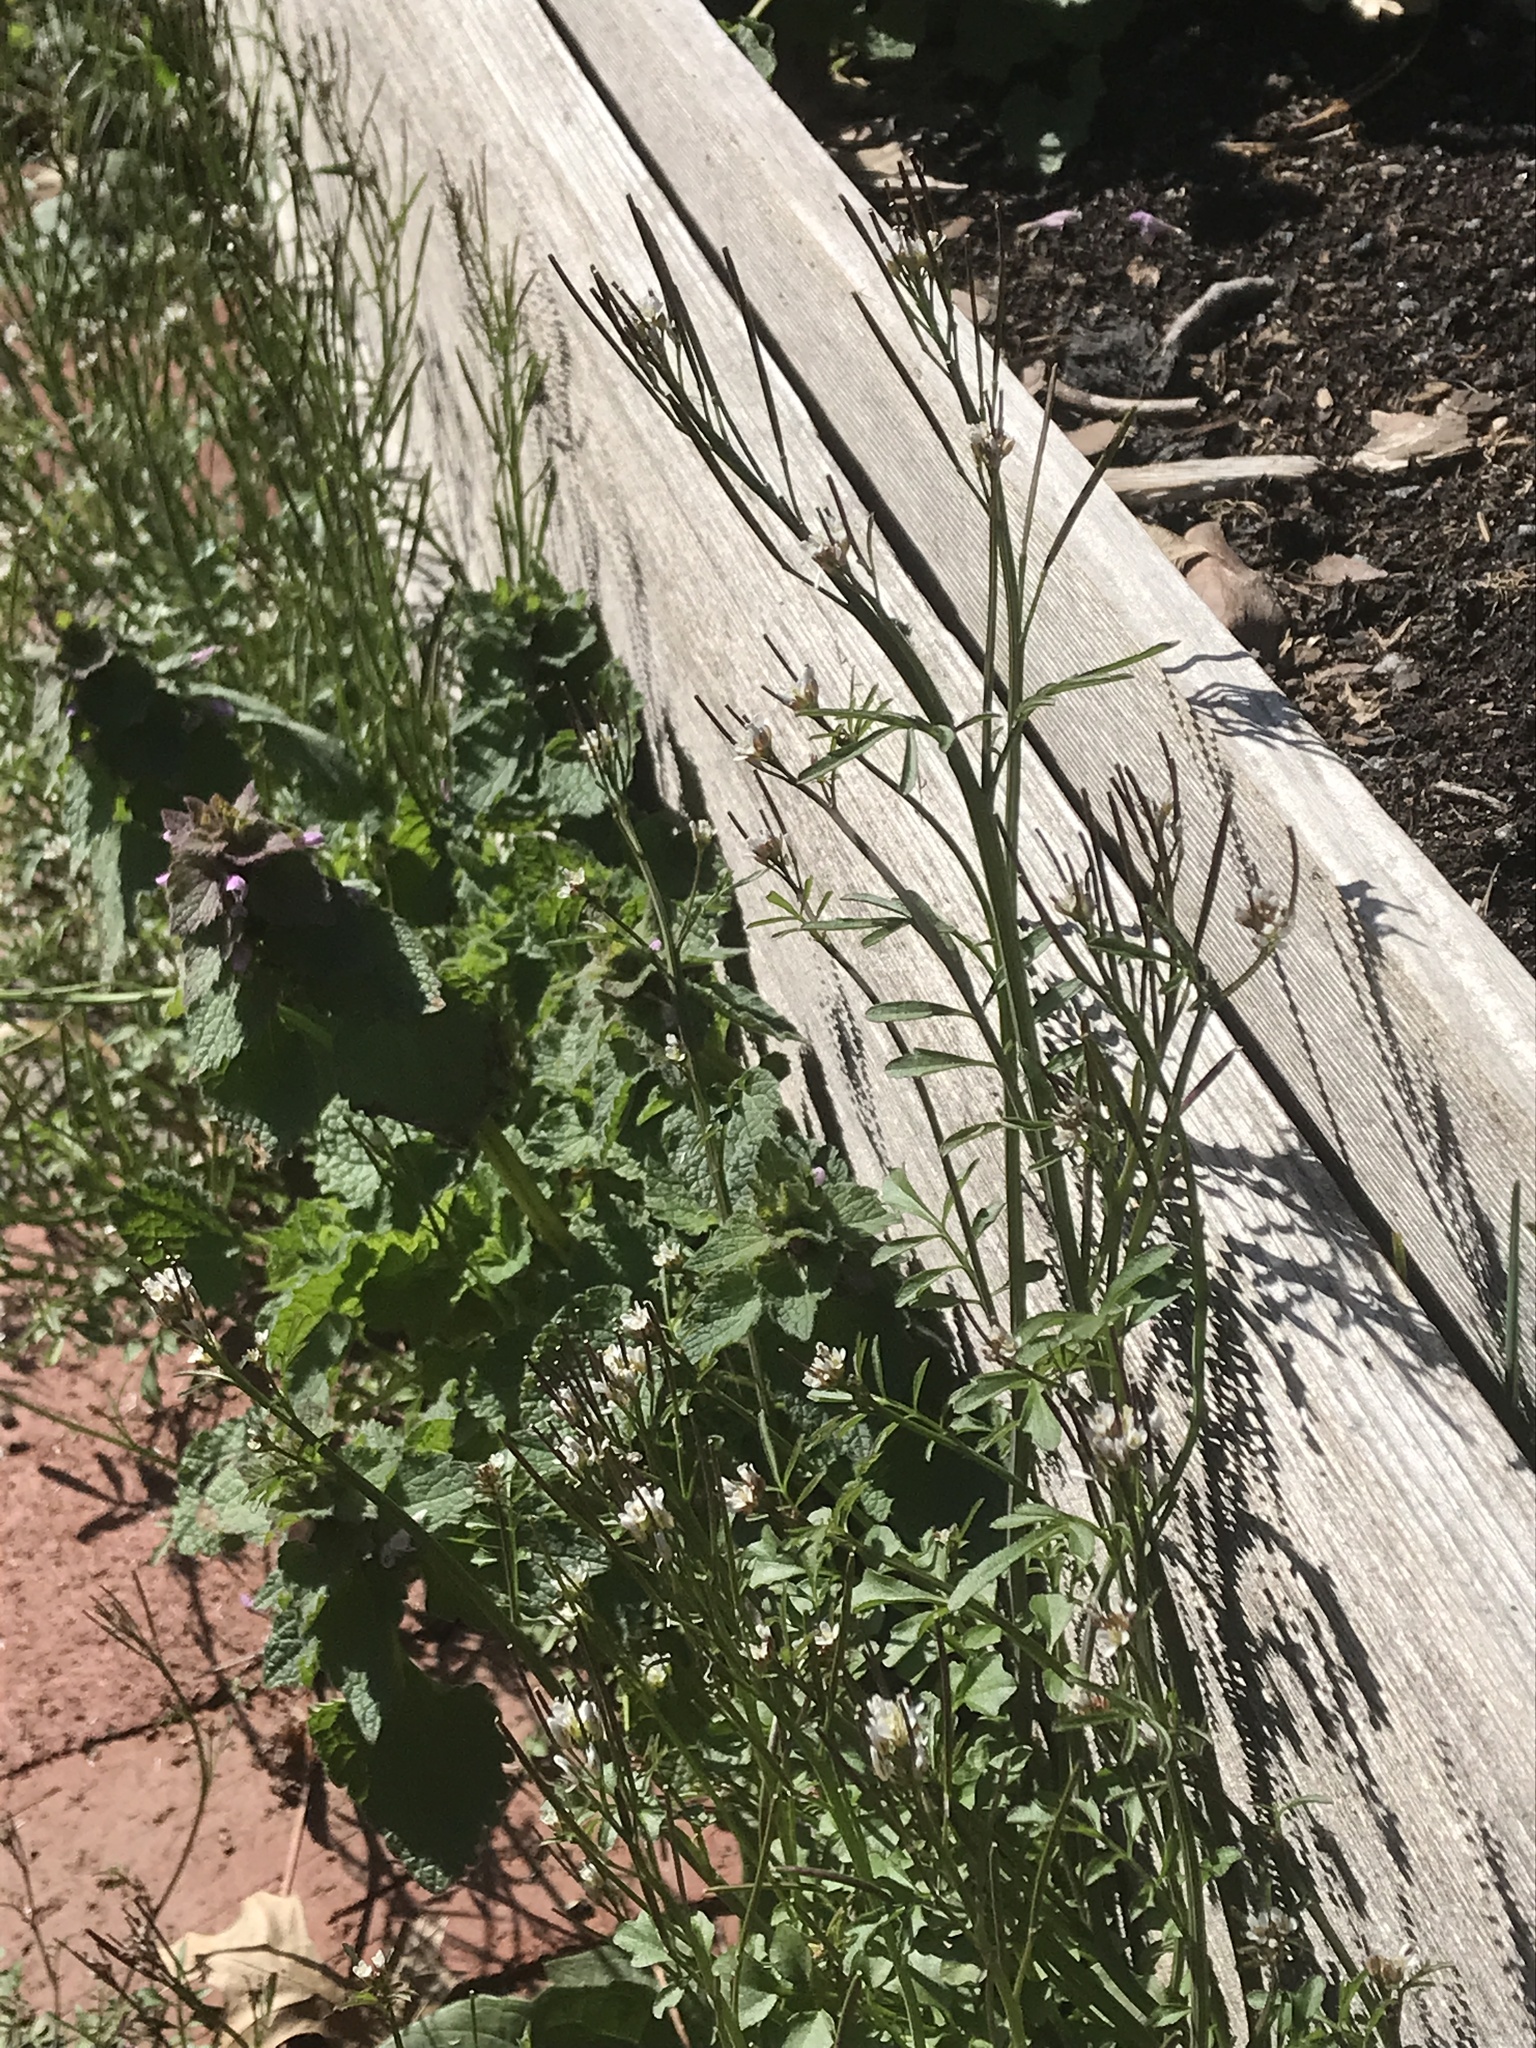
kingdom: Plantae
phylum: Tracheophyta
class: Magnoliopsida
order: Brassicales
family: Brassicaceae
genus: Cardamine
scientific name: Cardamine hirsuta
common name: Hairy bittercress
